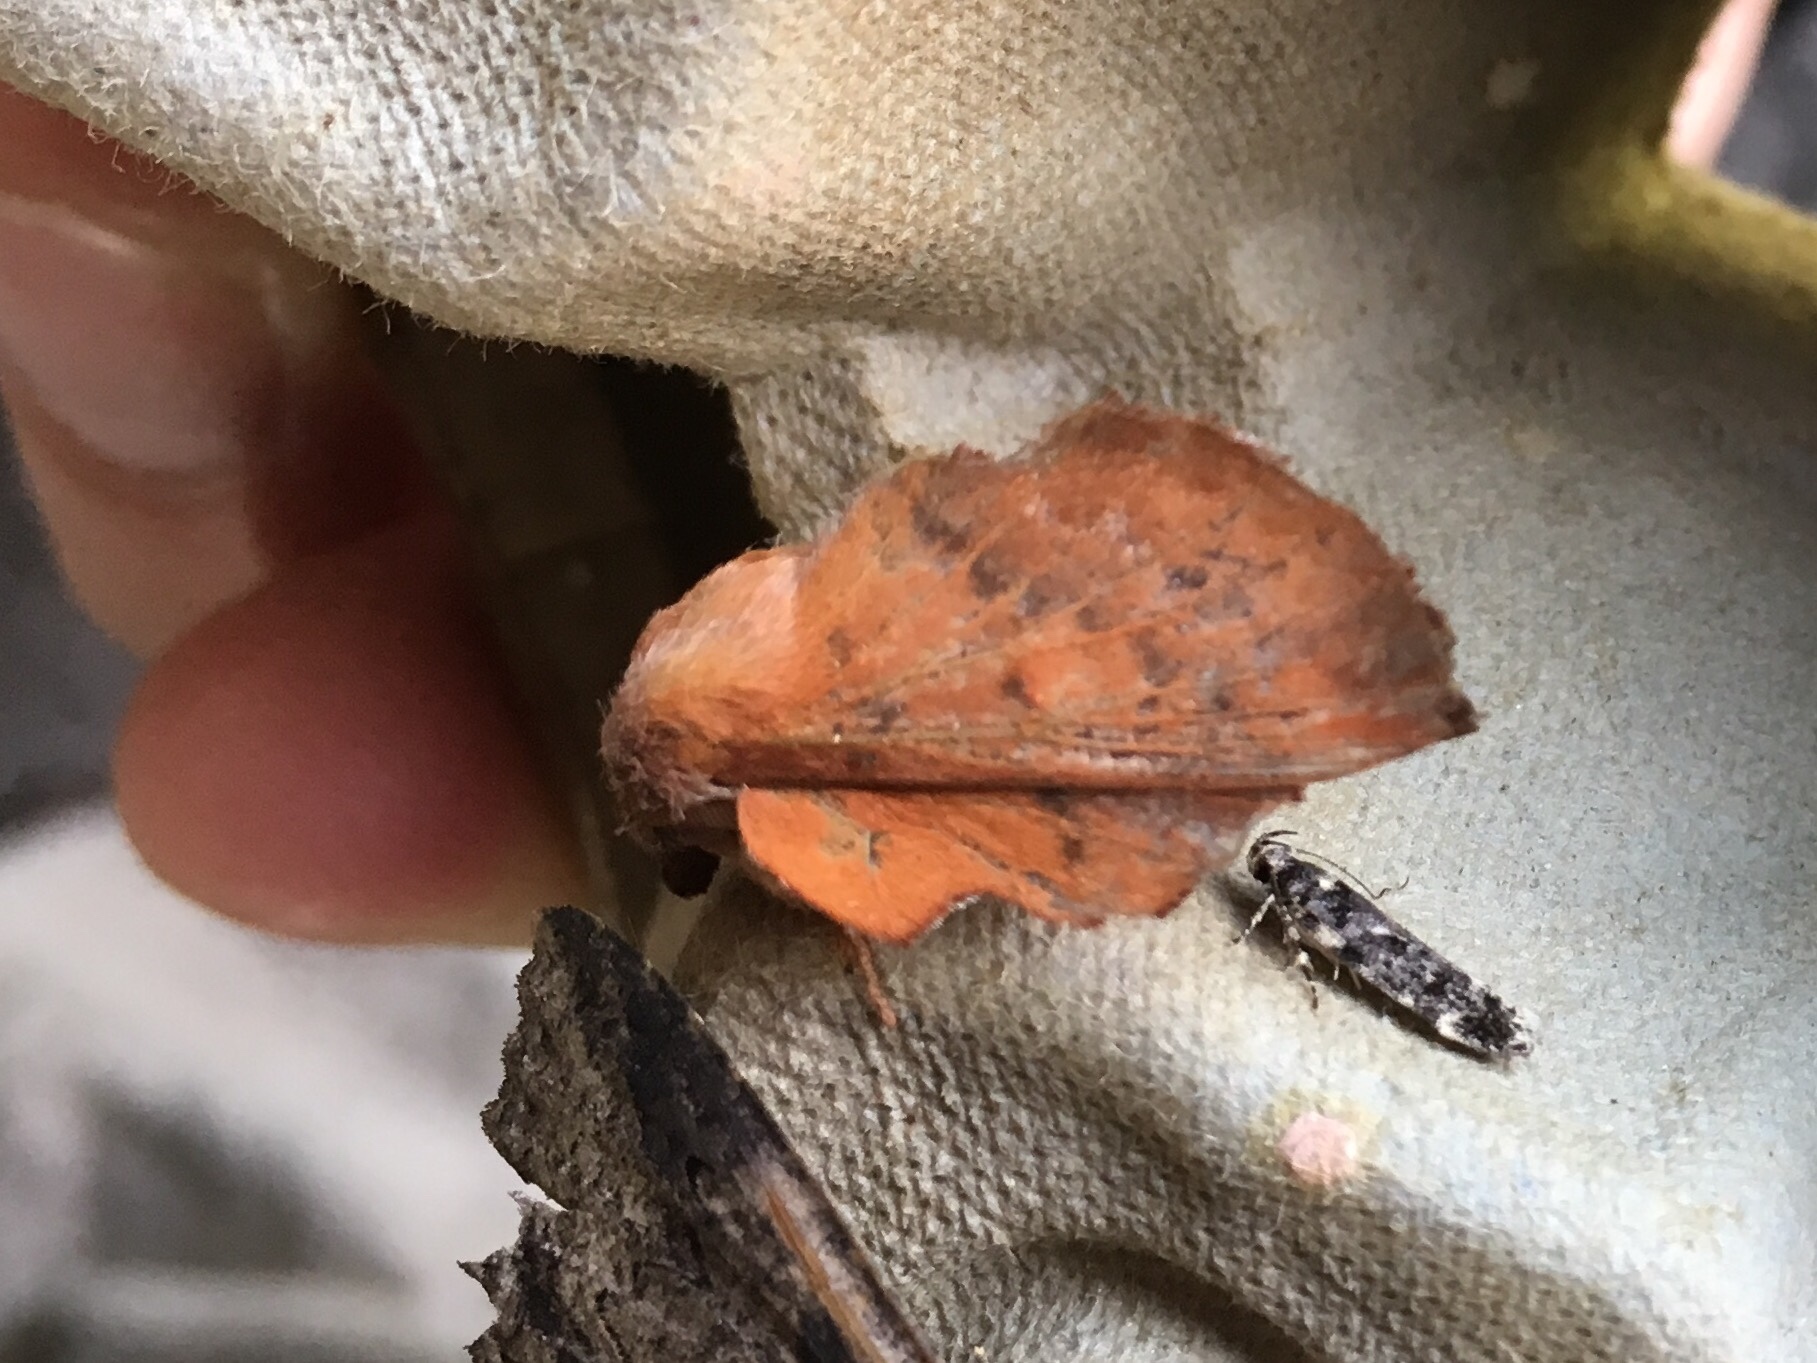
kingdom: Animalia
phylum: Arthropoda
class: Insecta
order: Lepidoptera
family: Lasiocampidae
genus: Phyllodesma
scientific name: Phyllodesma americana
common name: American lappet moth
